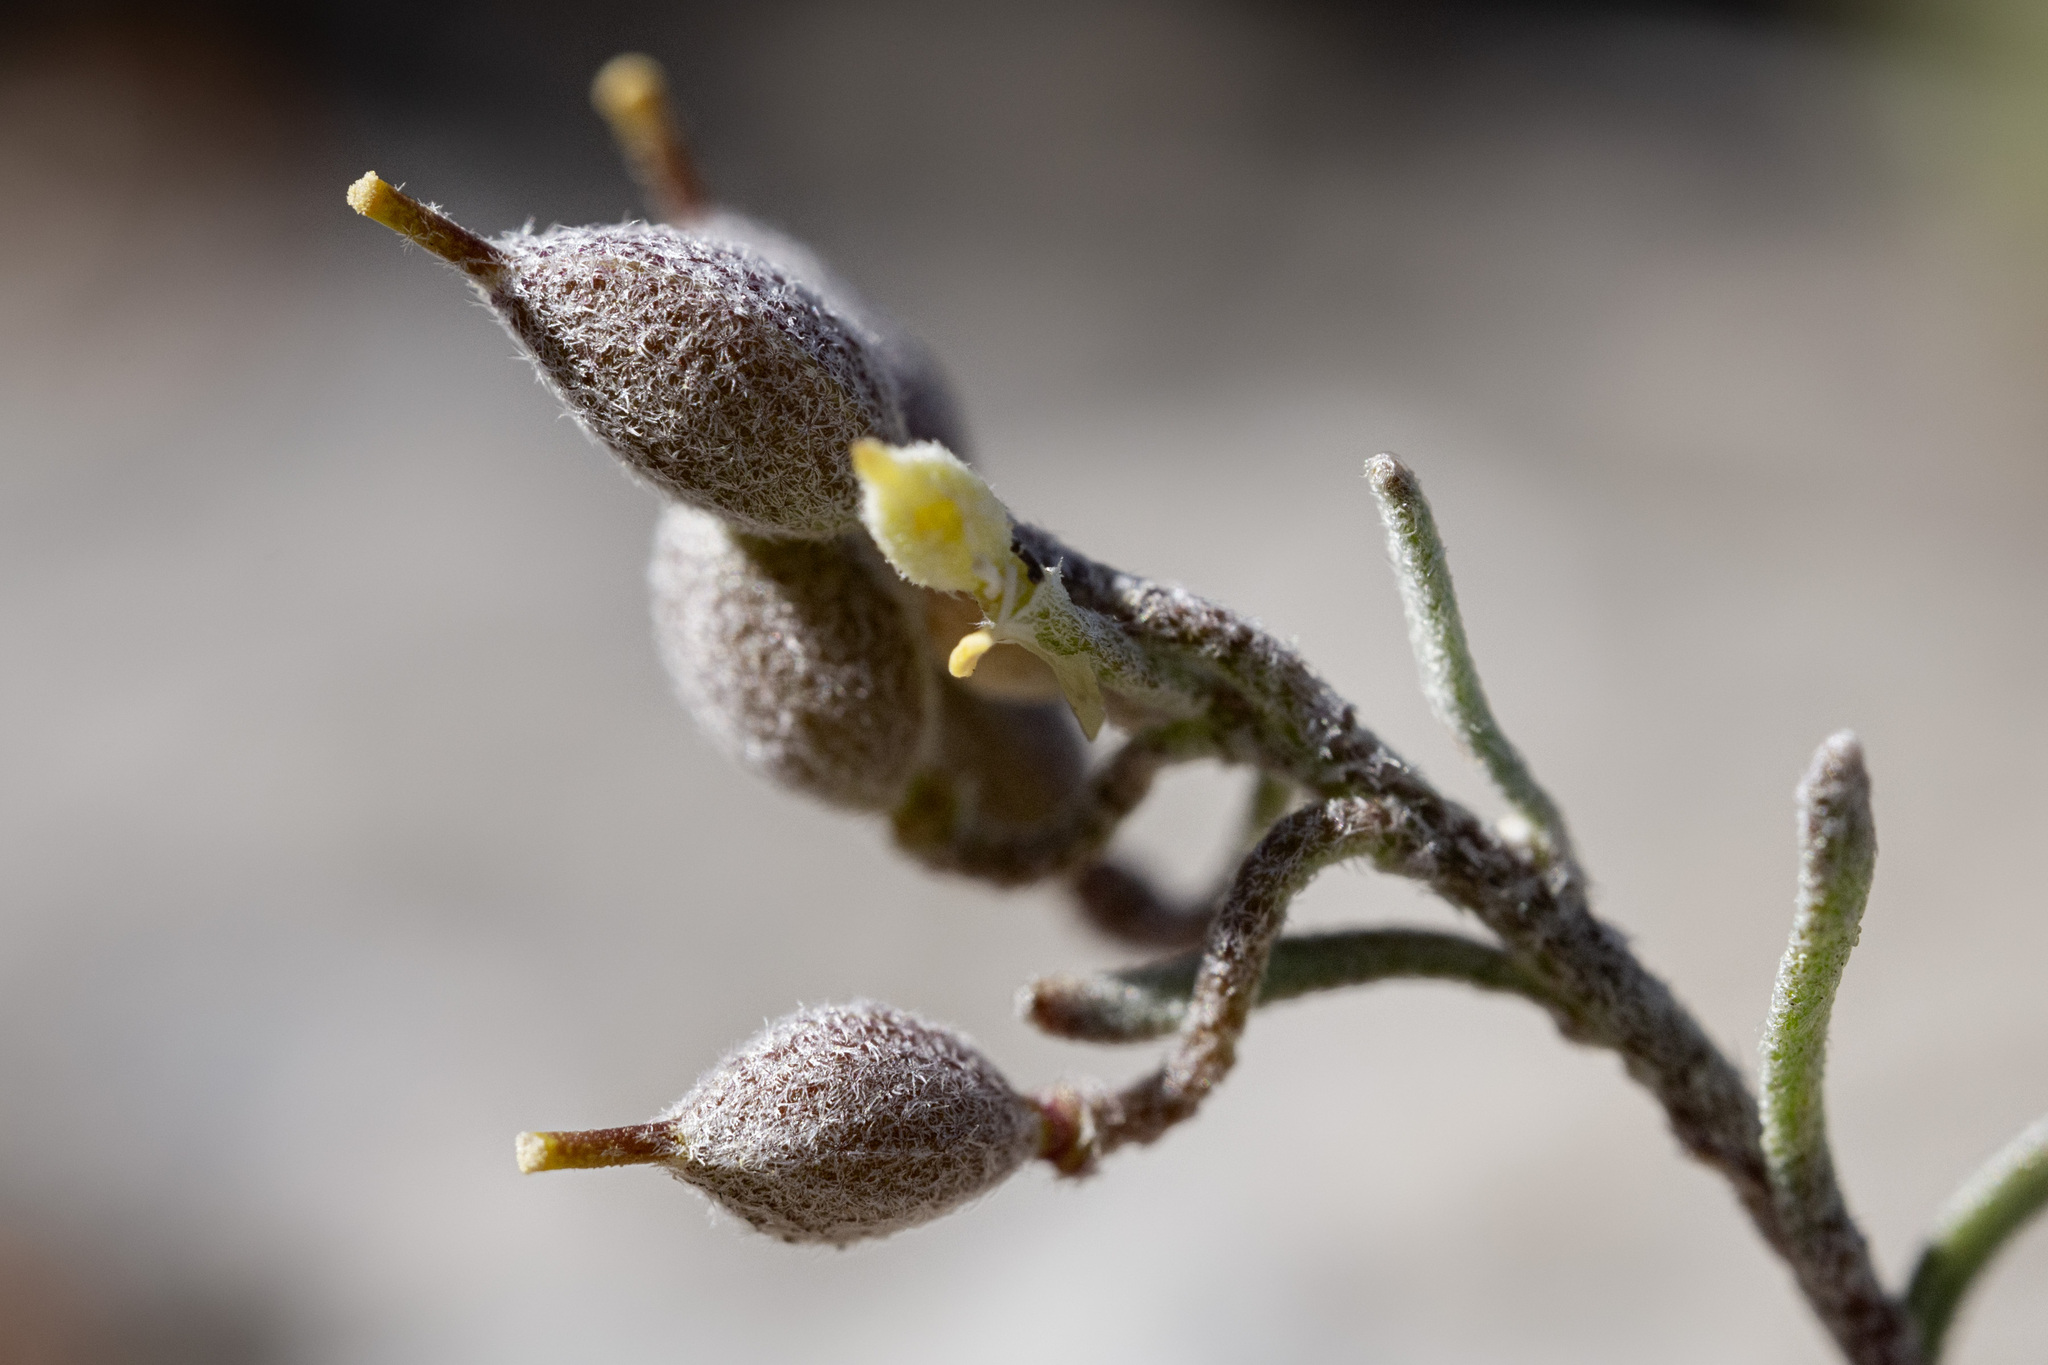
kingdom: Plantae
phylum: Tracheophyta
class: Magnoliopsida
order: Brassicales
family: Brassicaceae
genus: Physaria
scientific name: Physaria lesicae
